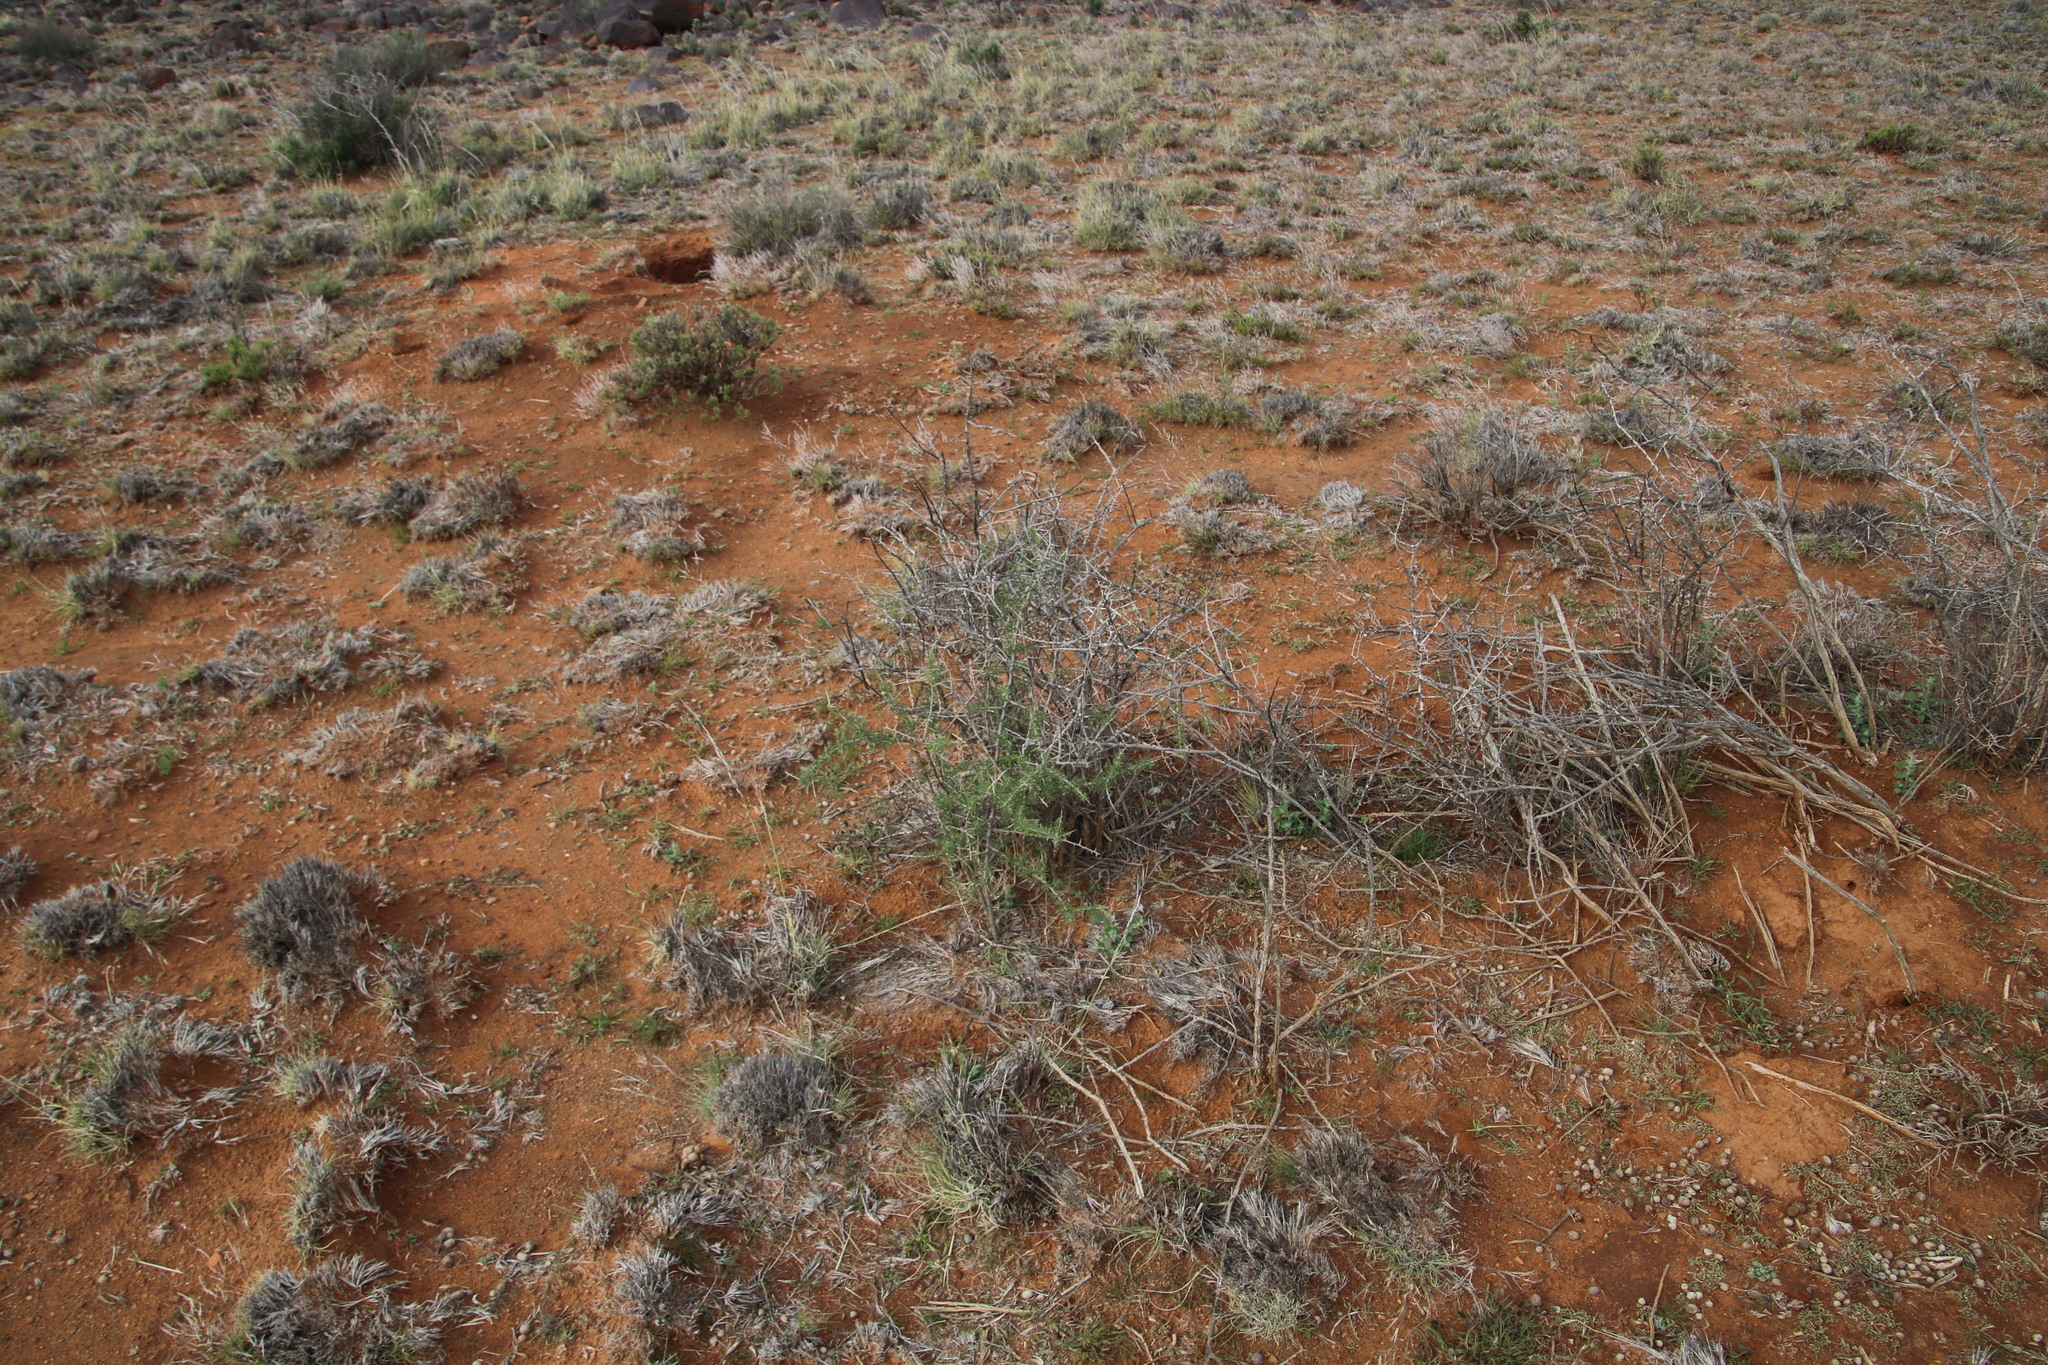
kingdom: Plantae
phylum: Tracheophyta
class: Magnoliopsida
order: Solanales
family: Solanaceae
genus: Lycium
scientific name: Lycium horridum
